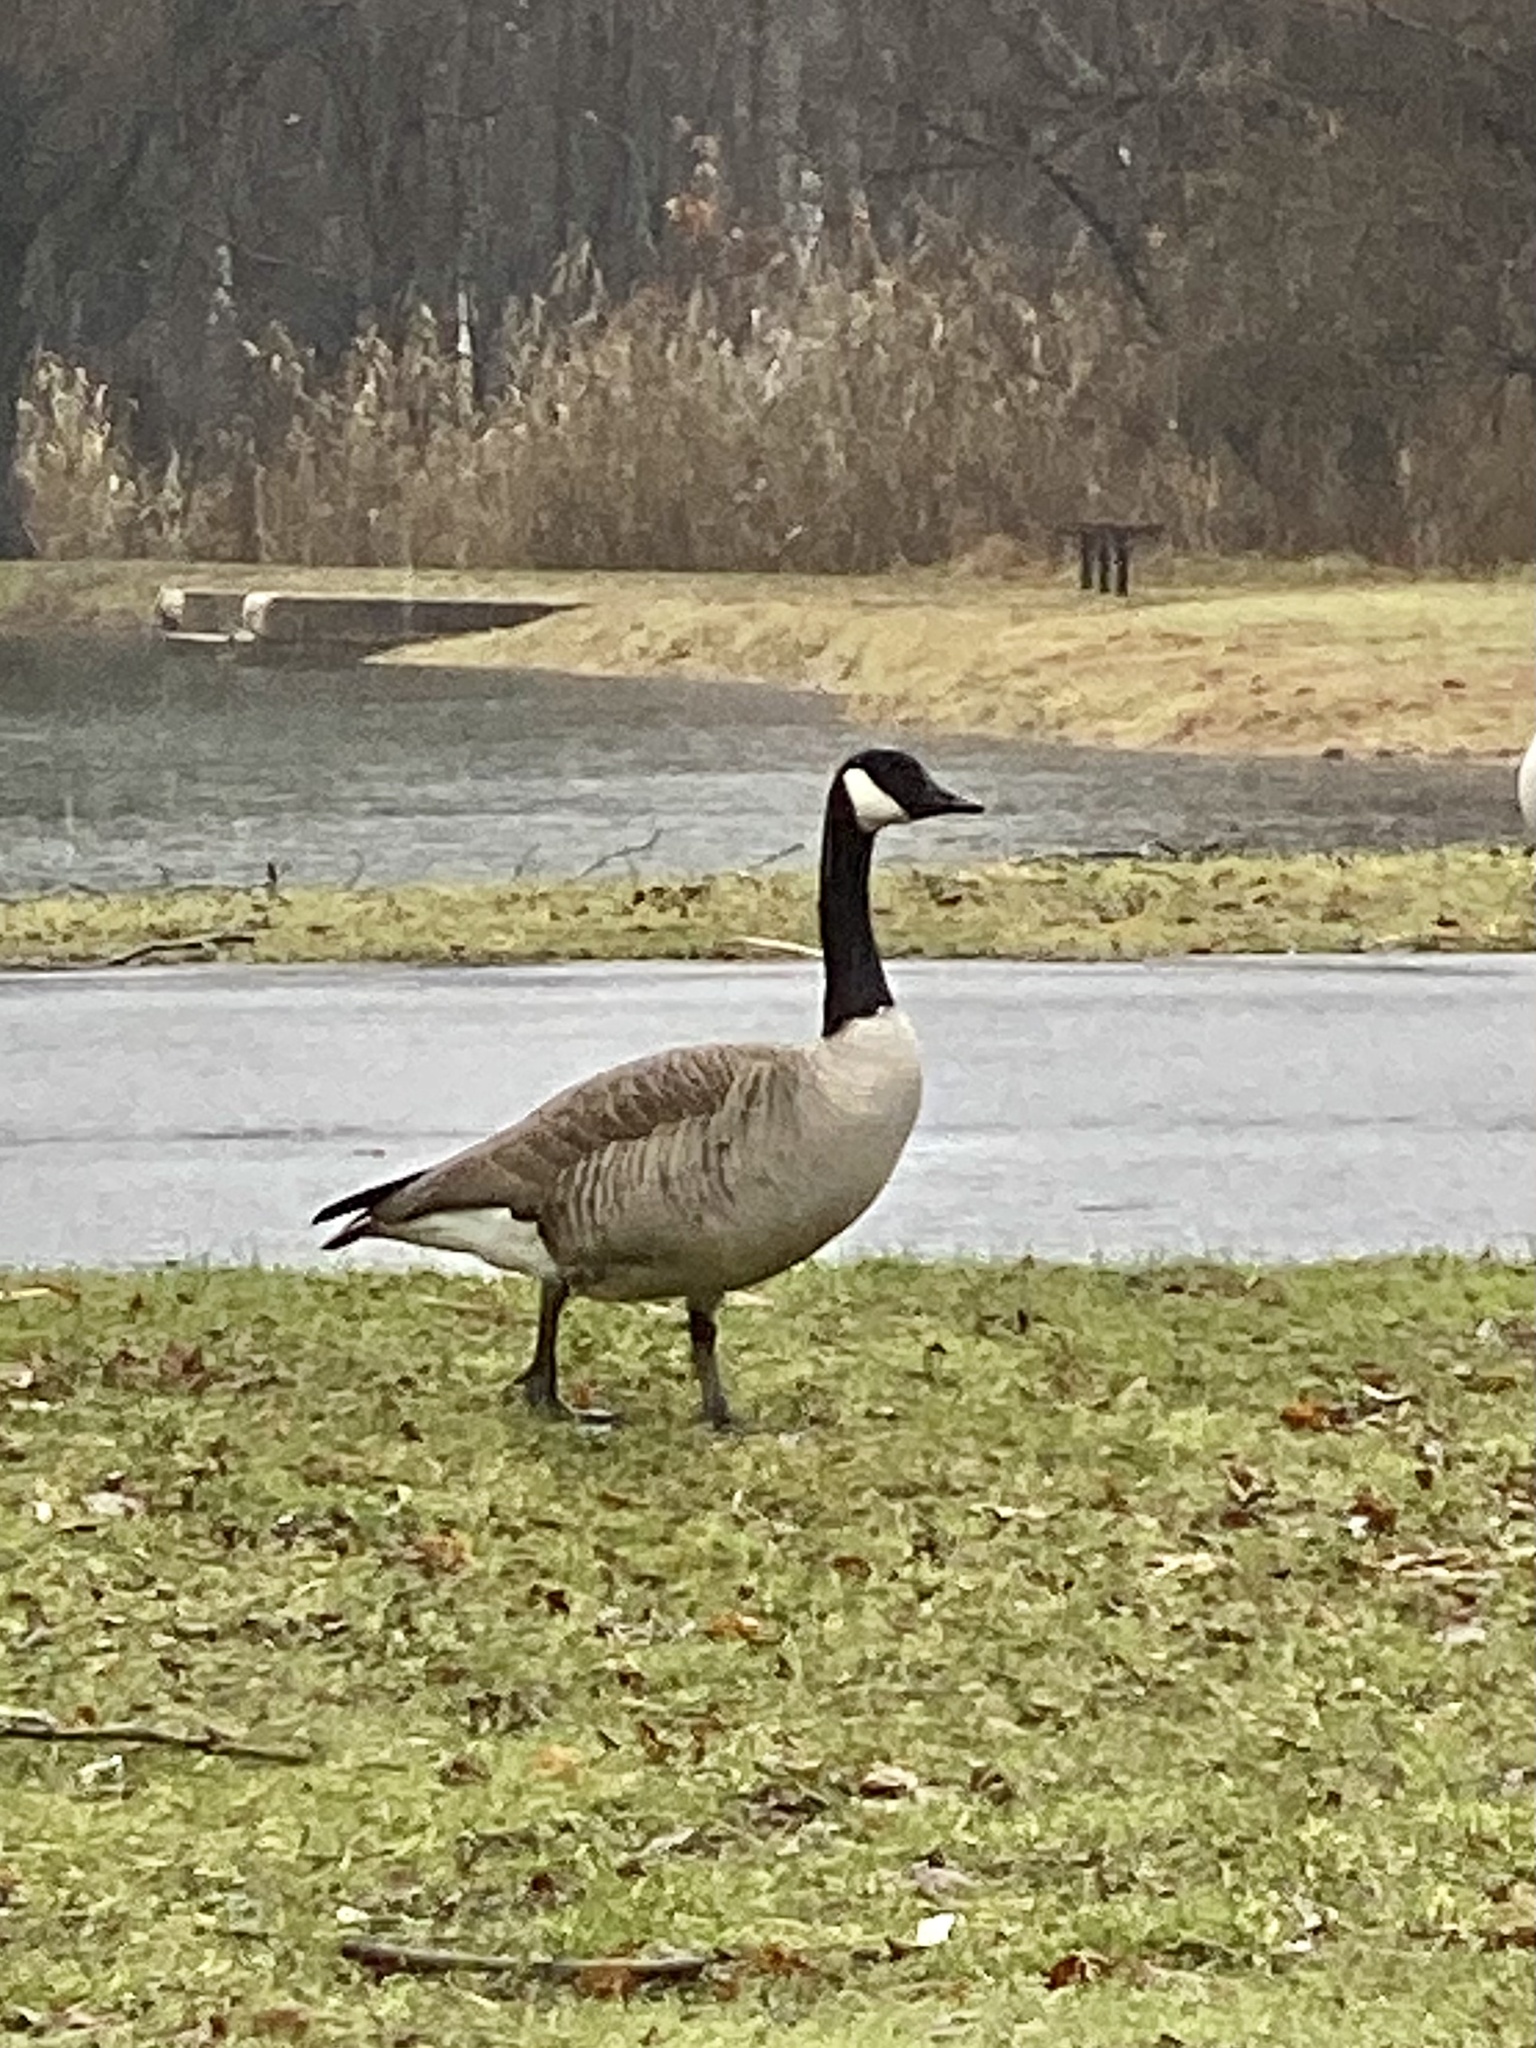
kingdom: Animalia
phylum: Chordata
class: Aves
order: Anseriformes
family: Anatidae
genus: Branta
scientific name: Branta canadensis
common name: Canada goose
